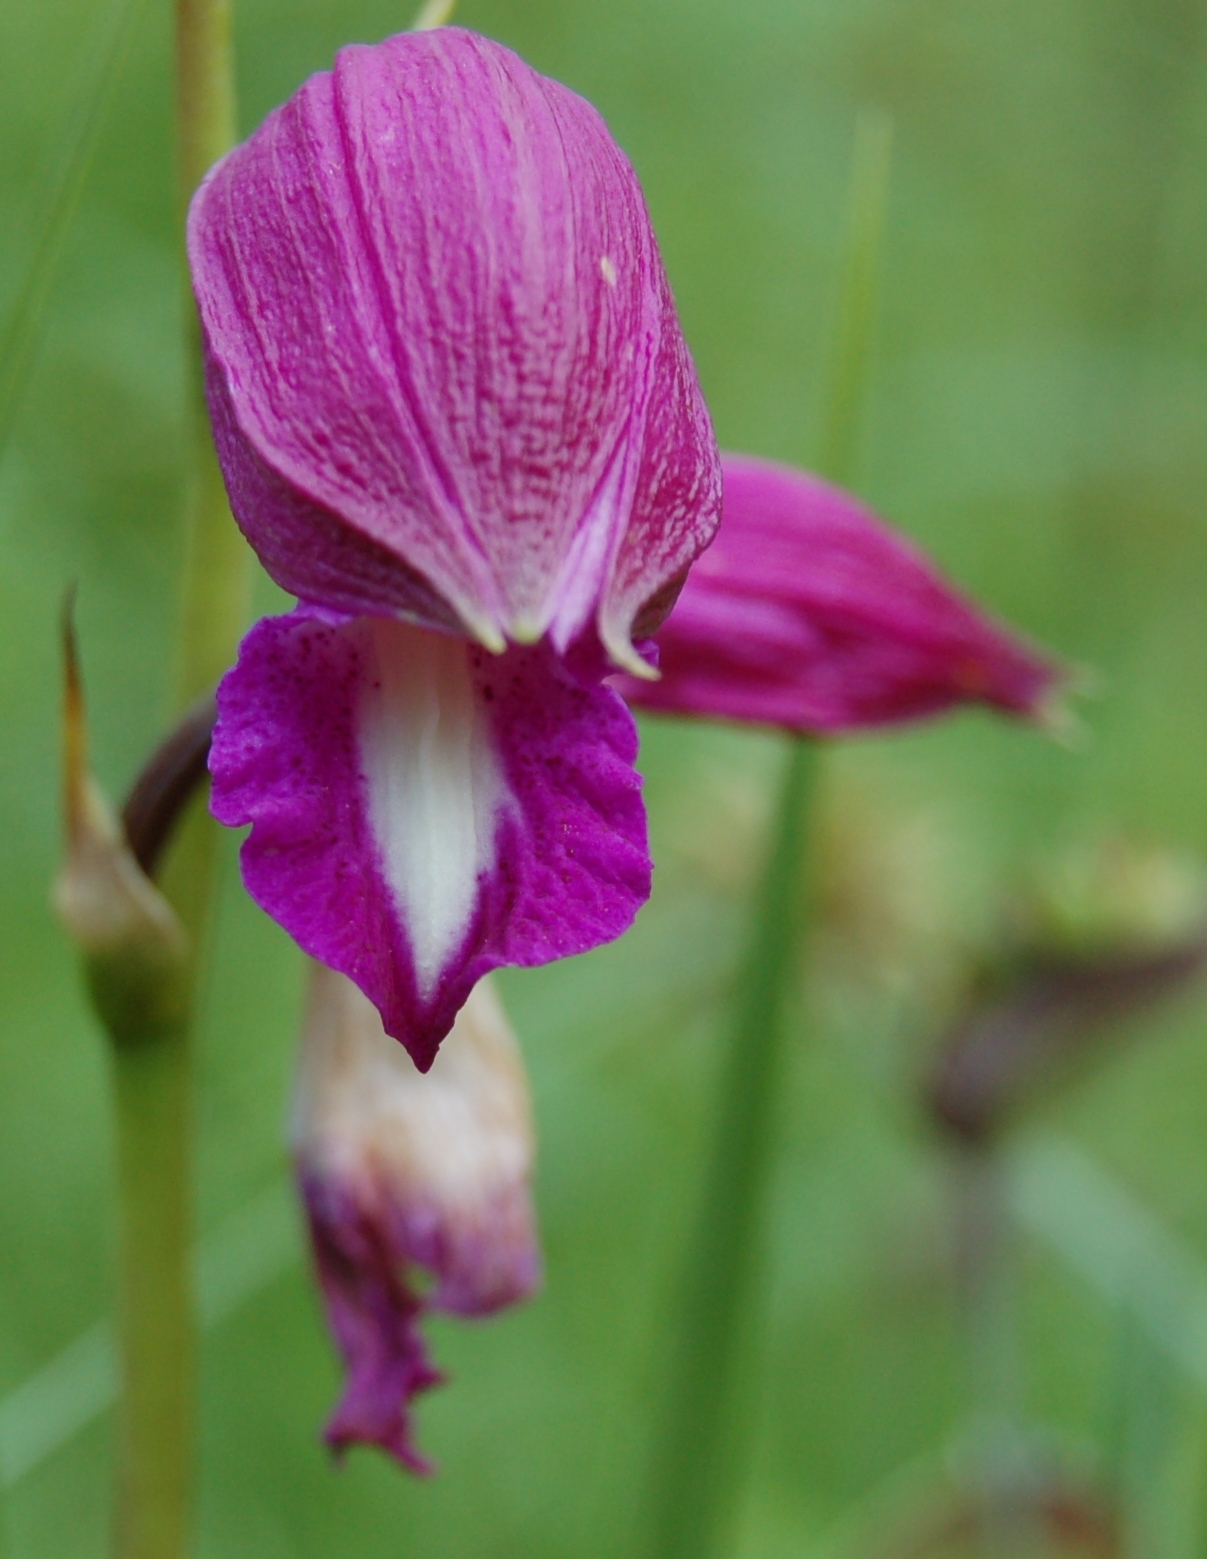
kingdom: Plantae
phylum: Tracheophyta
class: Liliopsida
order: Asparagales
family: Orchidaceae
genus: Bletia
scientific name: Bletia campanulata
